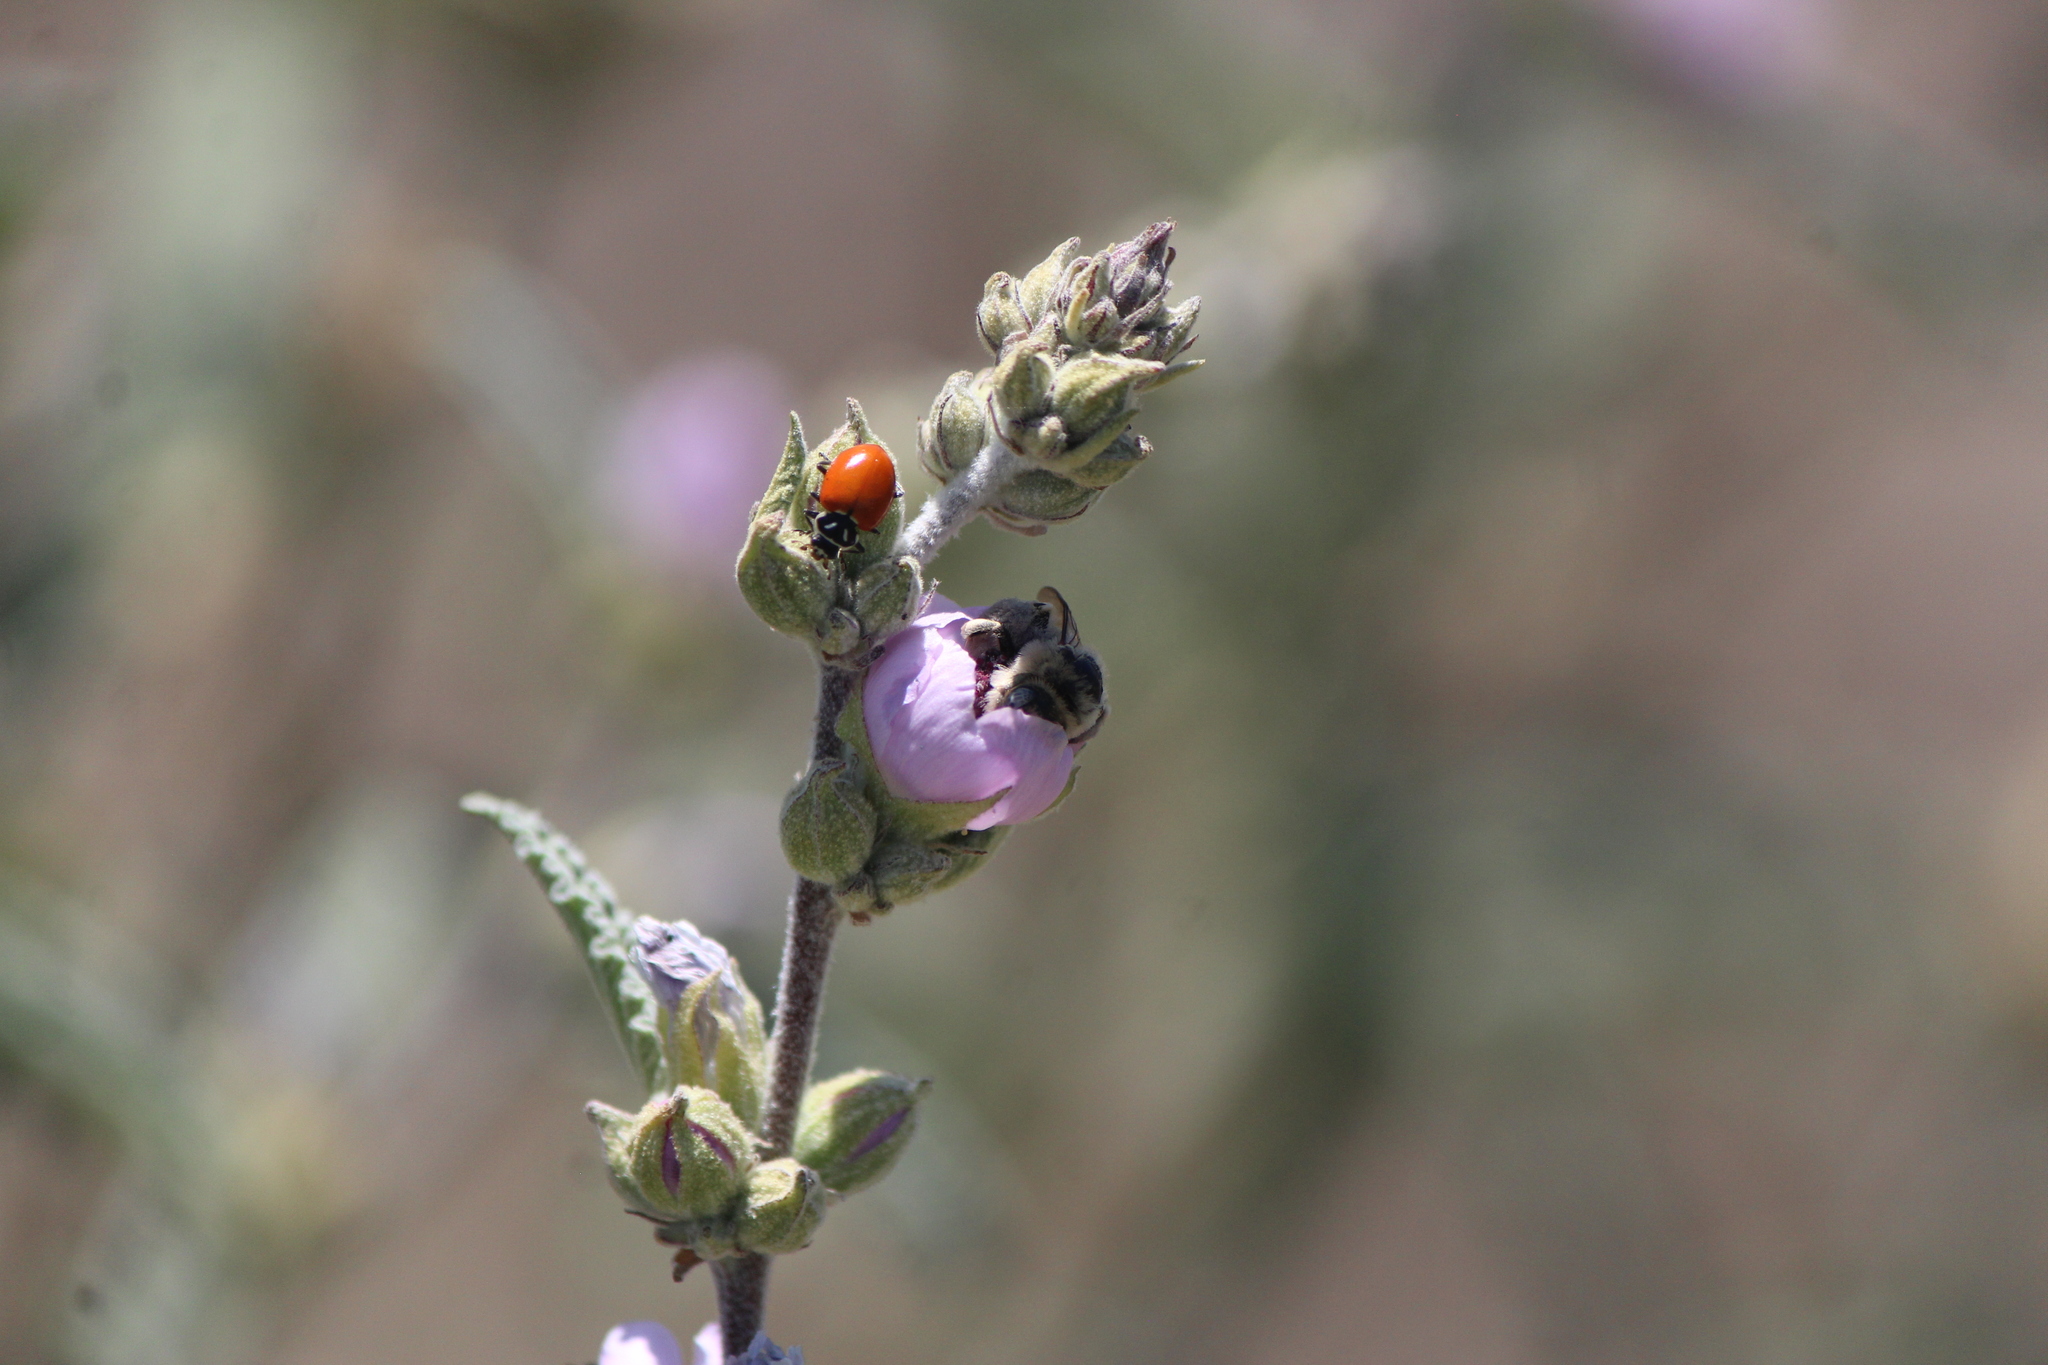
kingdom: Animalia
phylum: Arthropoda
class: Insecta
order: Coleoptera
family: Coccinellidae
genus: Hippodamia
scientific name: Hippodamia convergens
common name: Convergent lady beetle
